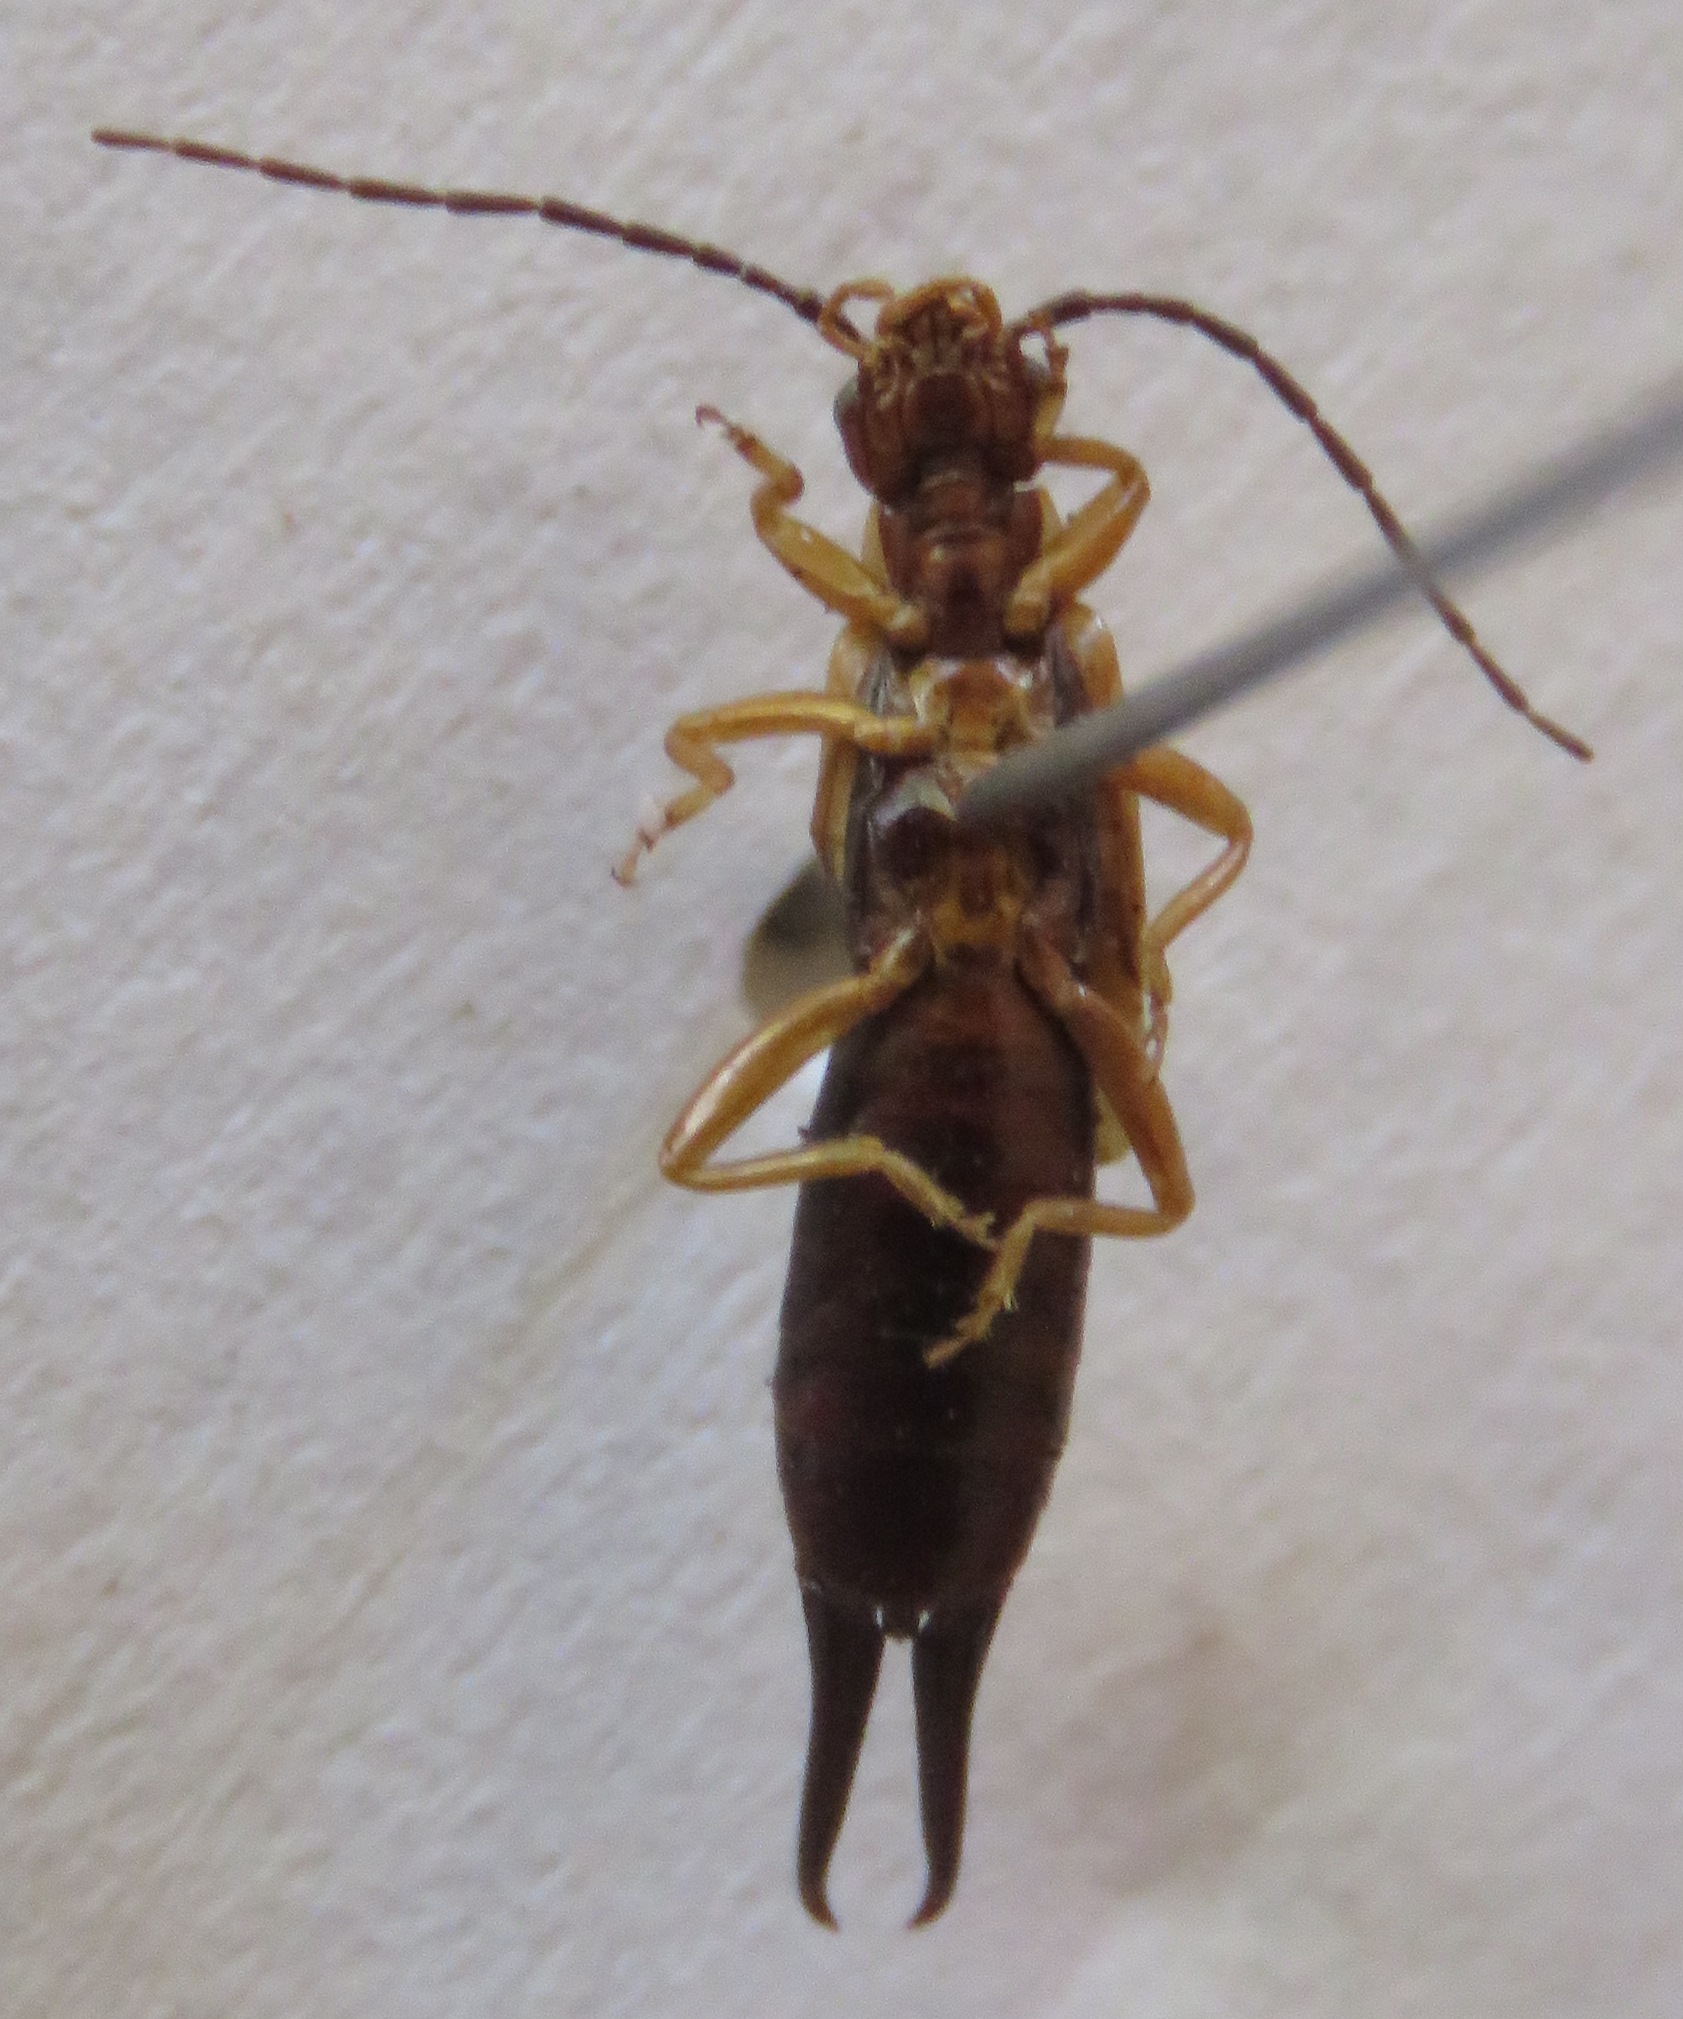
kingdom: Animalia
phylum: Arthropoda
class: Insecta
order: Dermaptera
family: Forficulidae
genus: Doru
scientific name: Doru lineare
